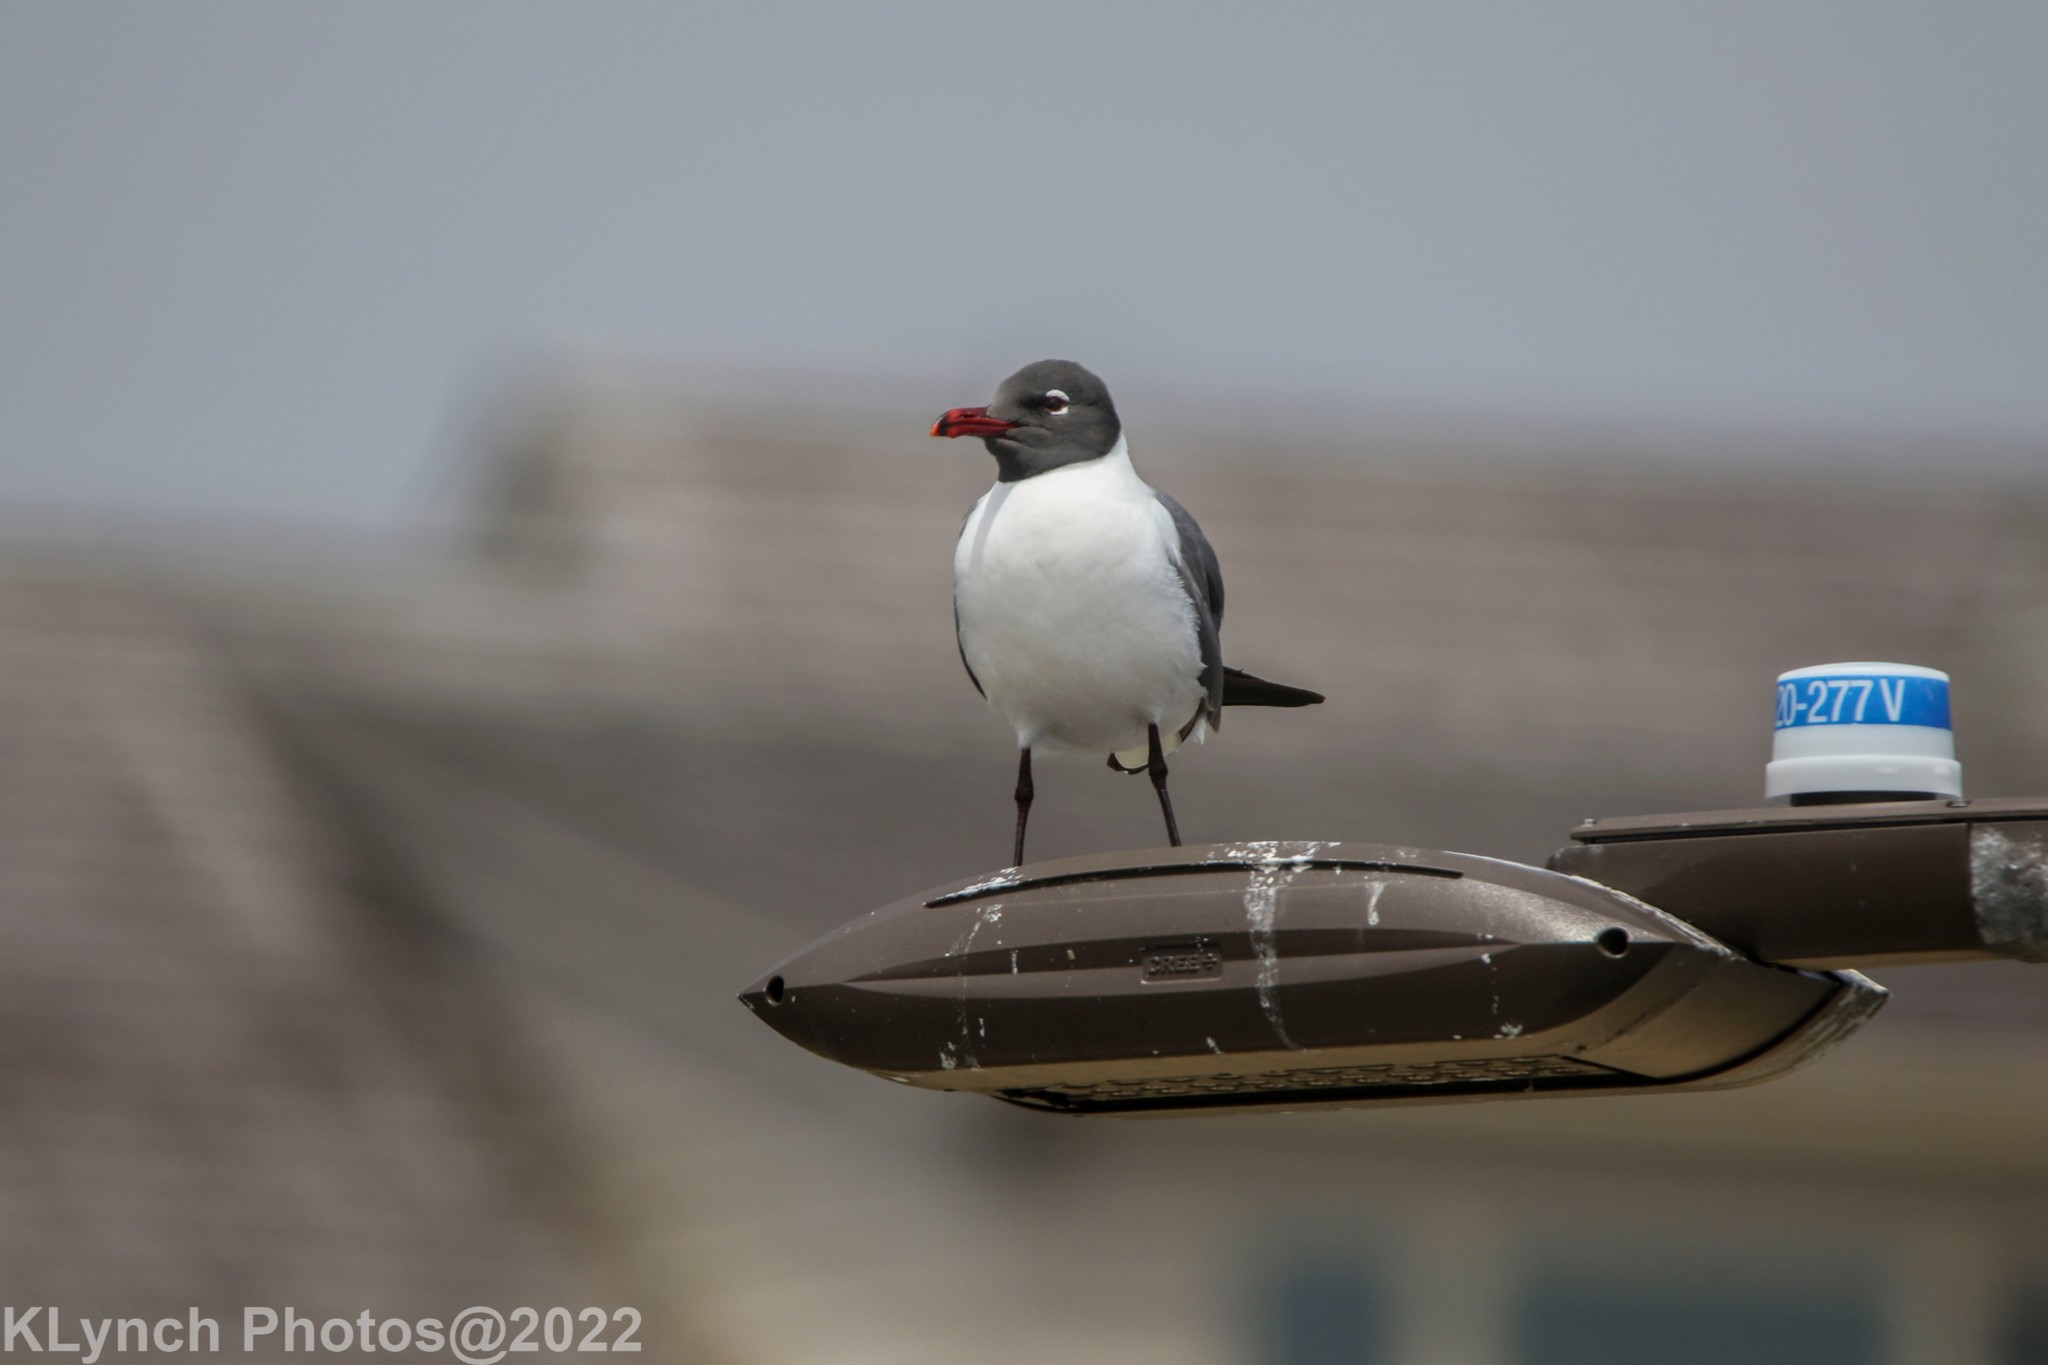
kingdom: Animalia
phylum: Chordata
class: Aves
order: Charadriiformes
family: Laridae
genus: Leucophaeus
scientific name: Leucophaeus atricilla
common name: Laughing gull
